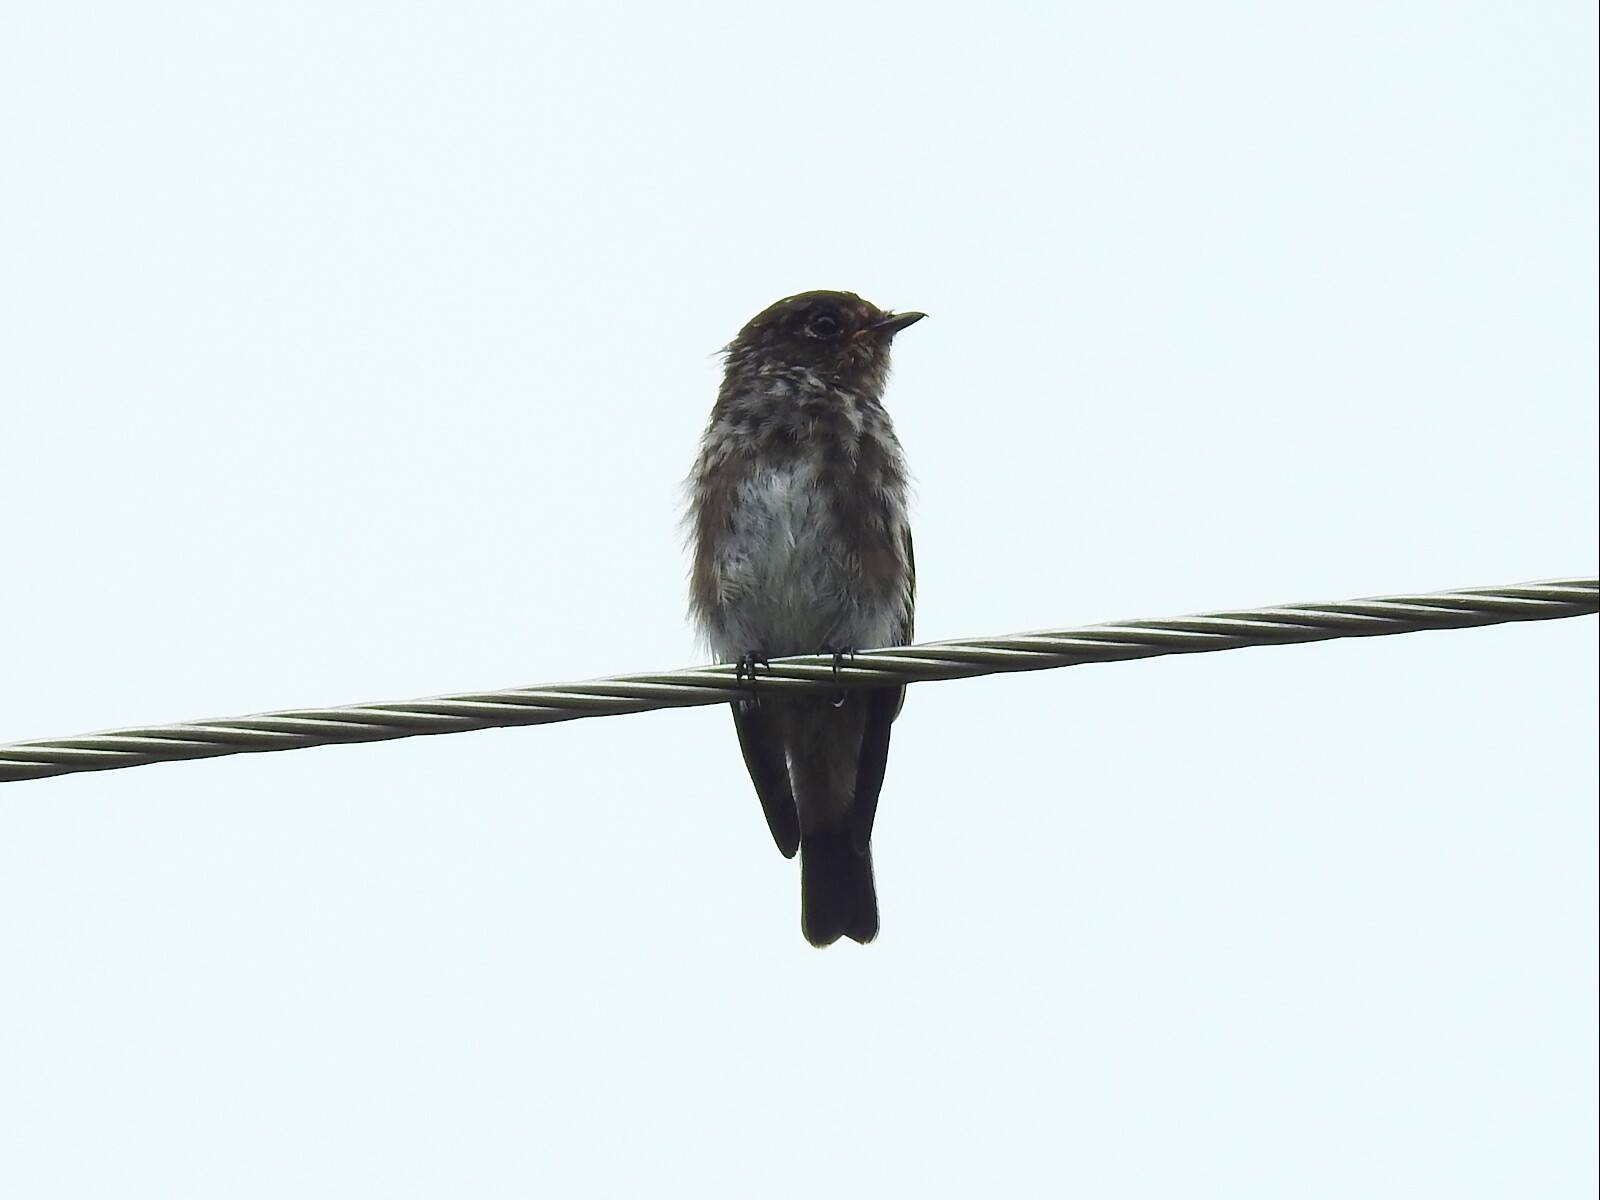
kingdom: Animalia
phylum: Chordata
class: Aves
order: Passeriformes
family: Muscicapidae
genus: Muscicapa
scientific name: Muscicapa sibirica
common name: Dark-sided flycatcher
